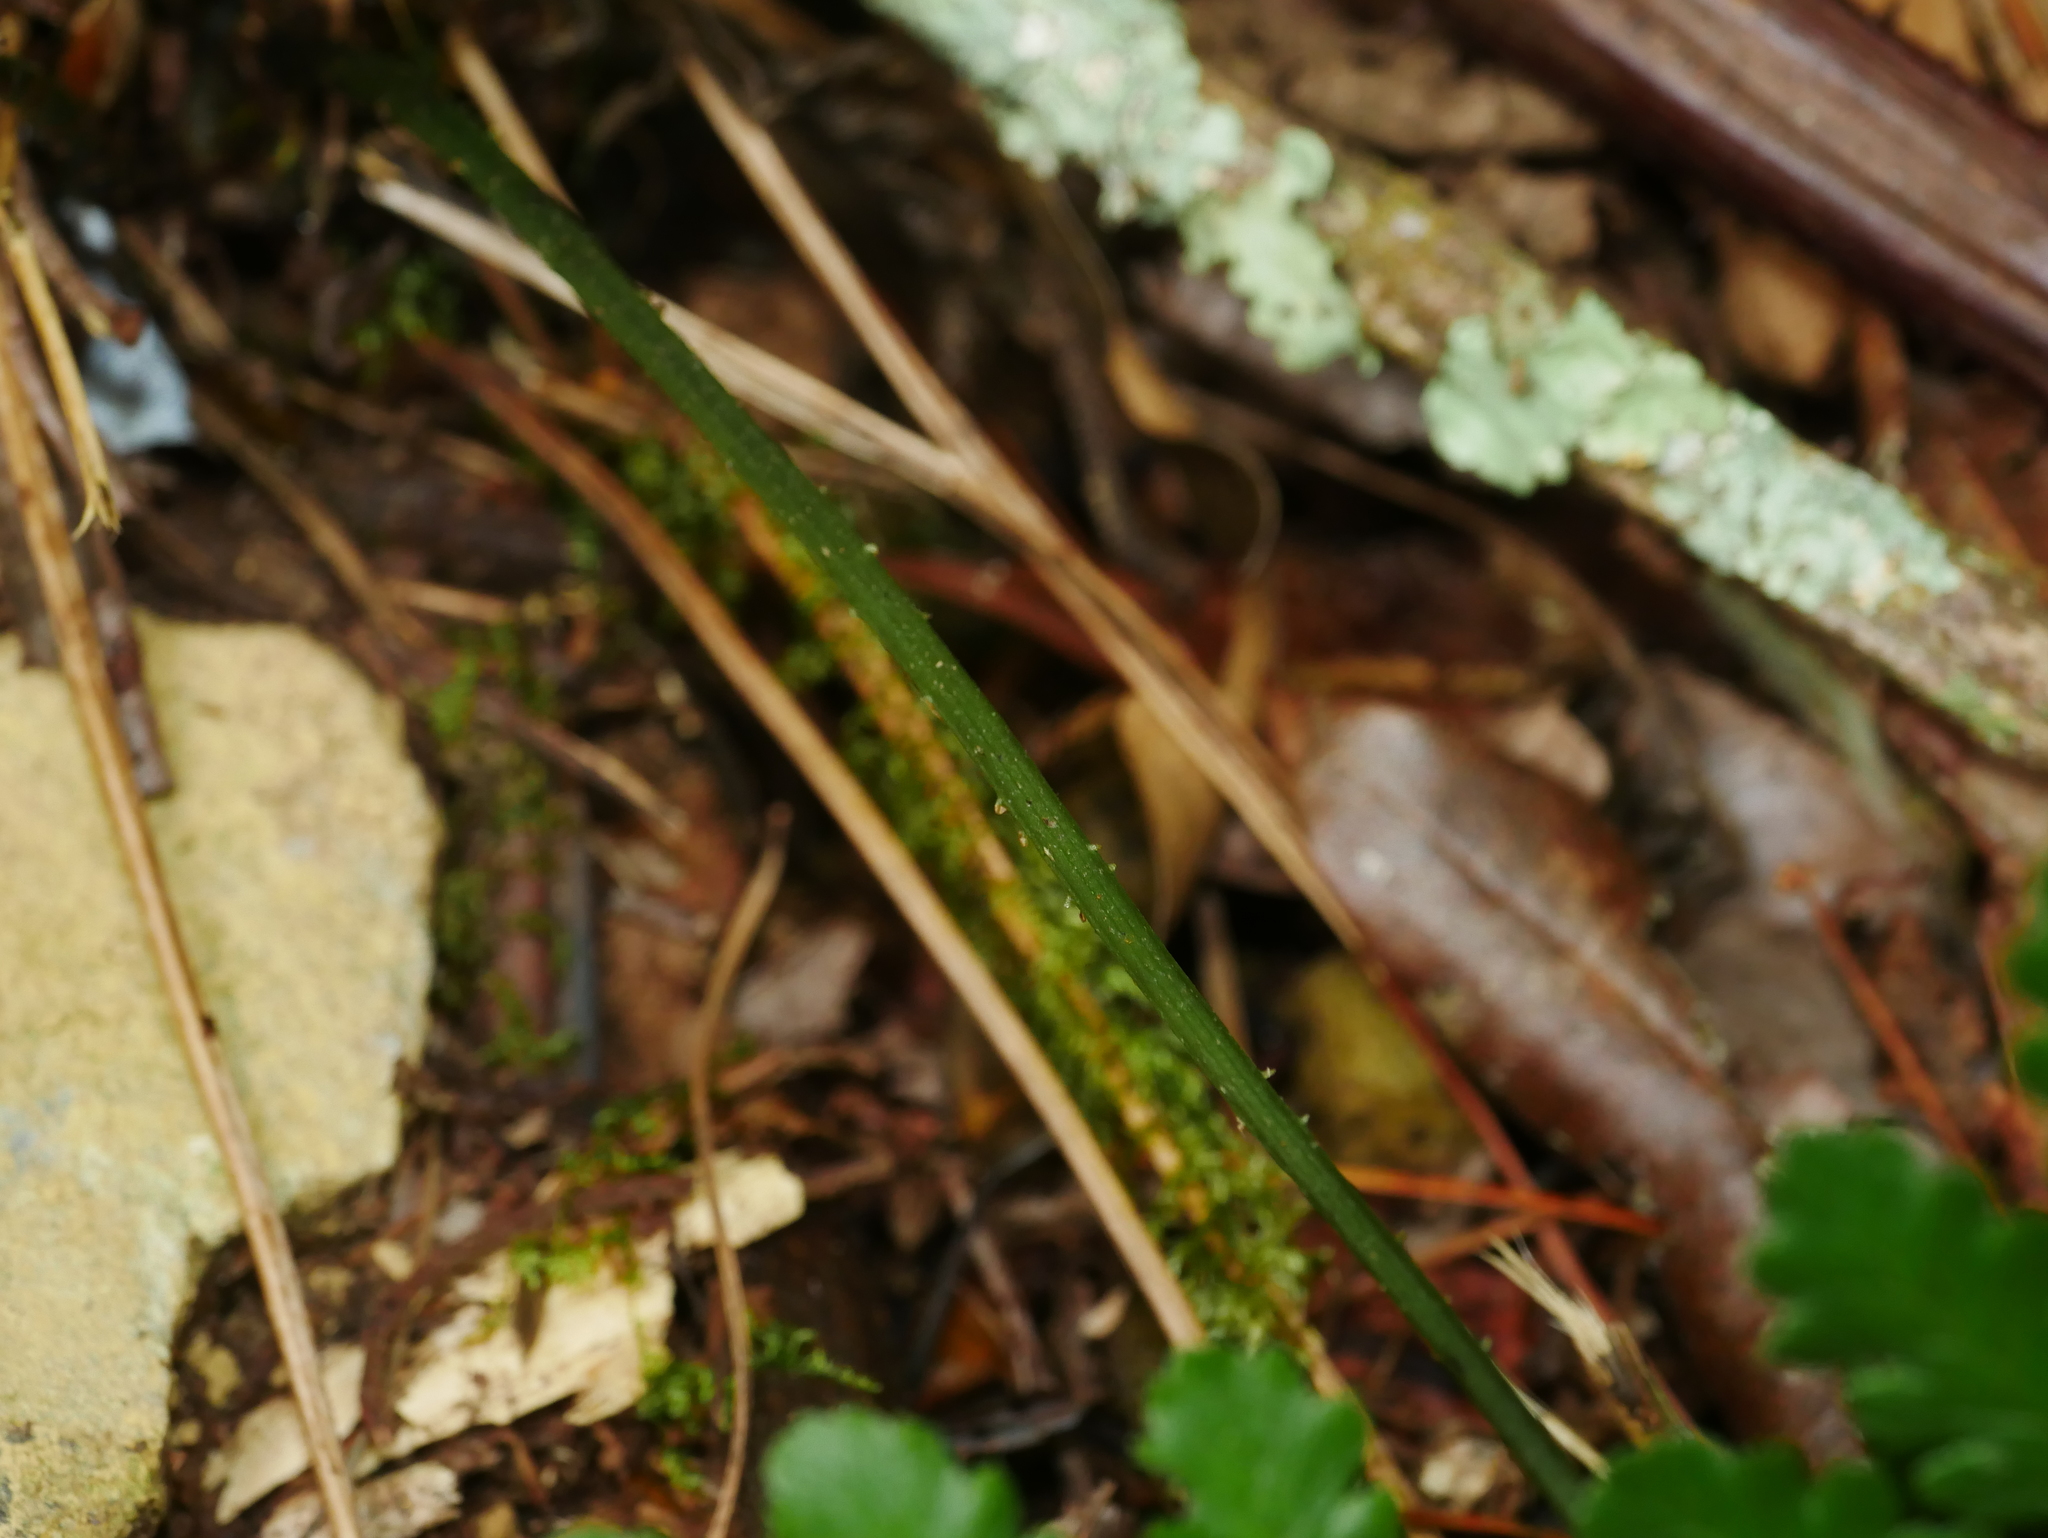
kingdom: Plantae
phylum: Tracheophyta
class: Polypodiopsida
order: Polypodiales
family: Athyriaceae
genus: Diplazium
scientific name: Diplazium kawakamii
